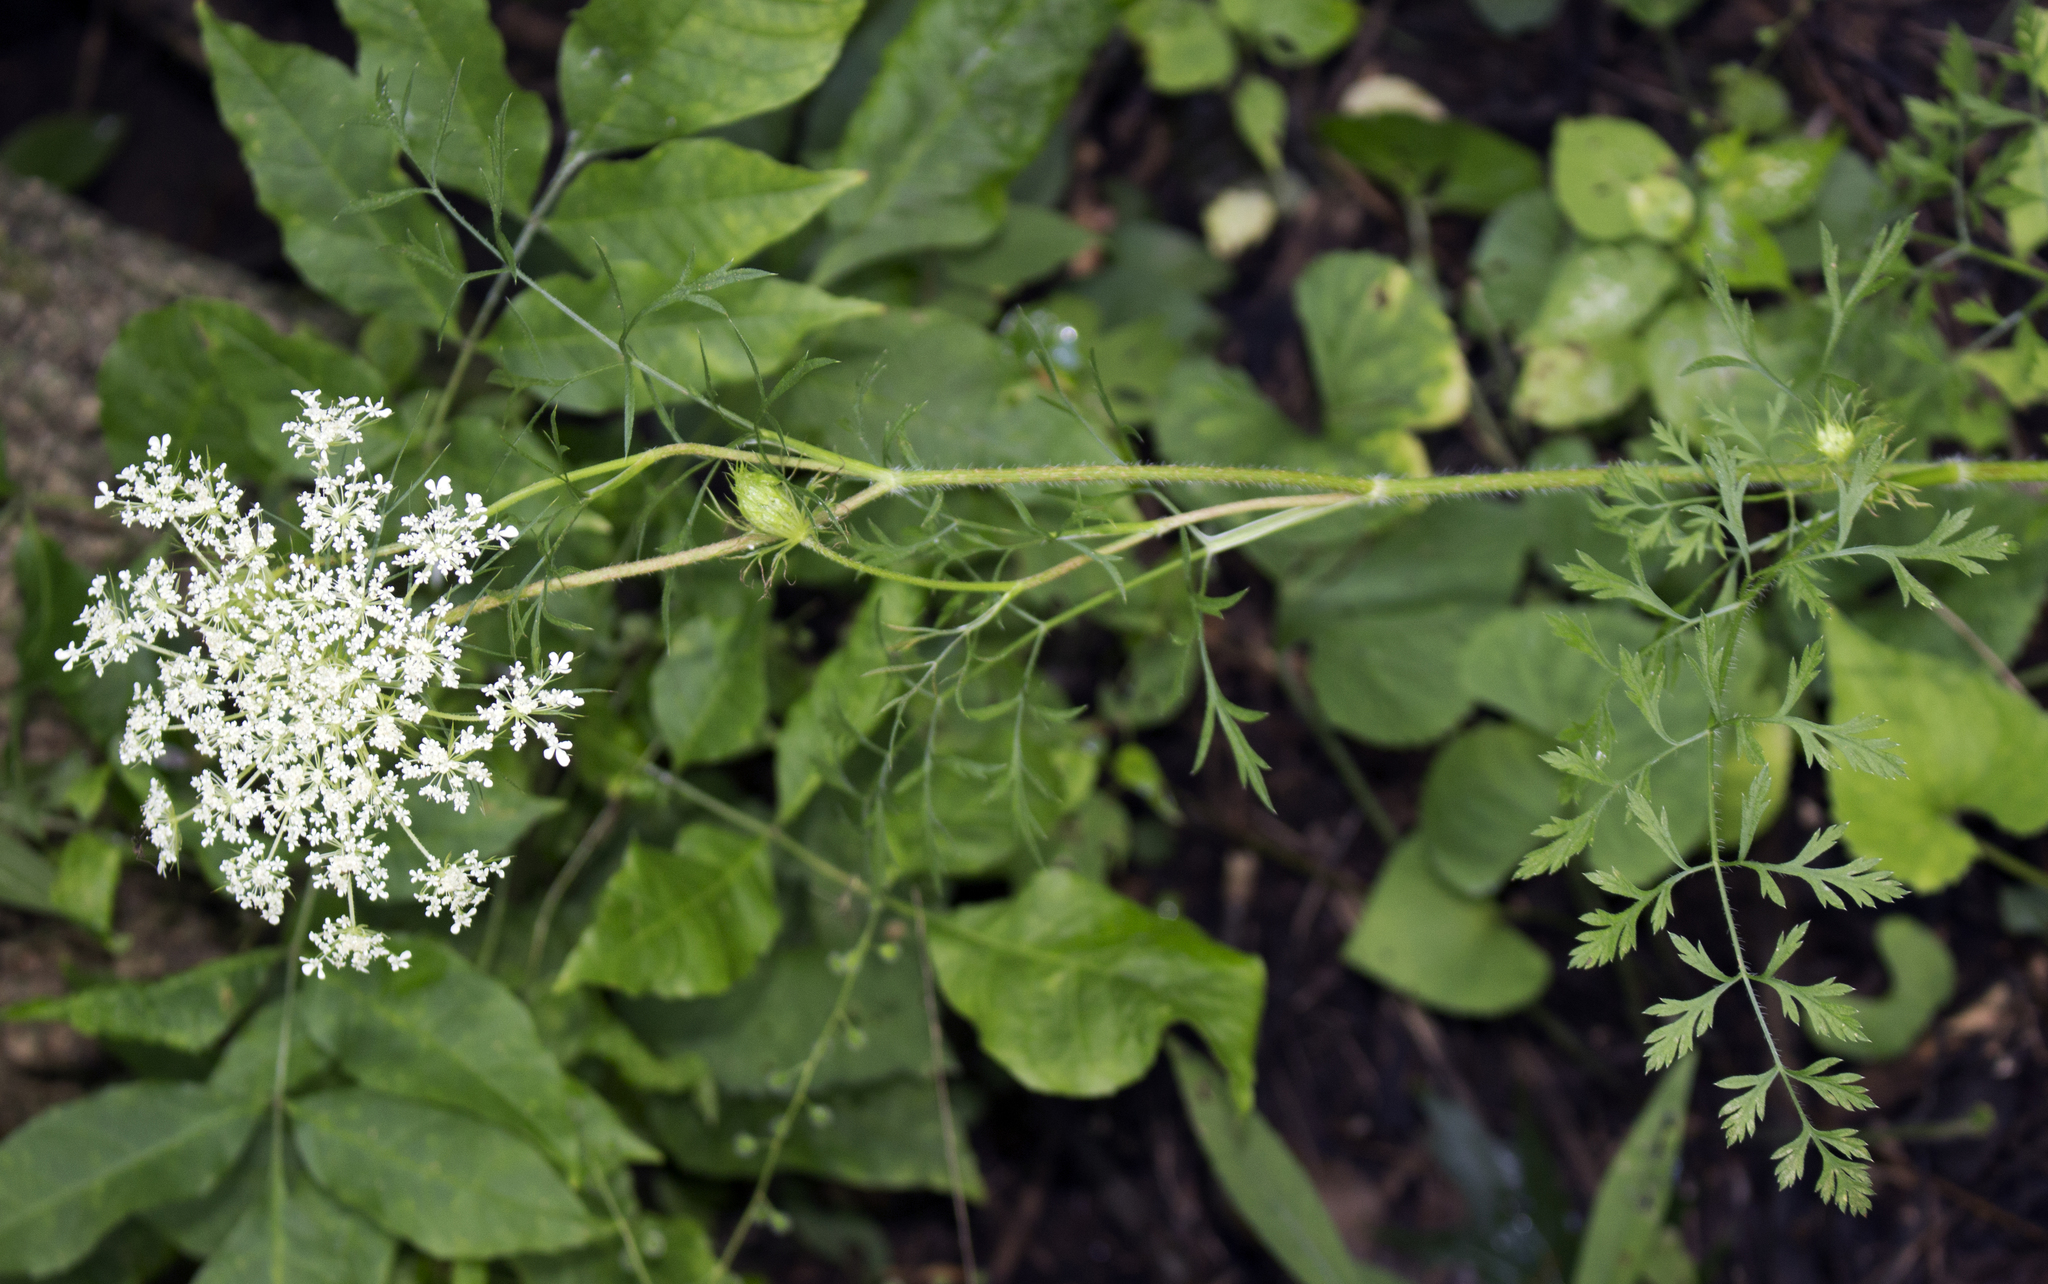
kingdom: Plantae
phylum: Tracheophyta
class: Magnoliopsida
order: Apiales
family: Apiaceae
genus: Daucus
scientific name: Daucus carota
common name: Wild carrot
